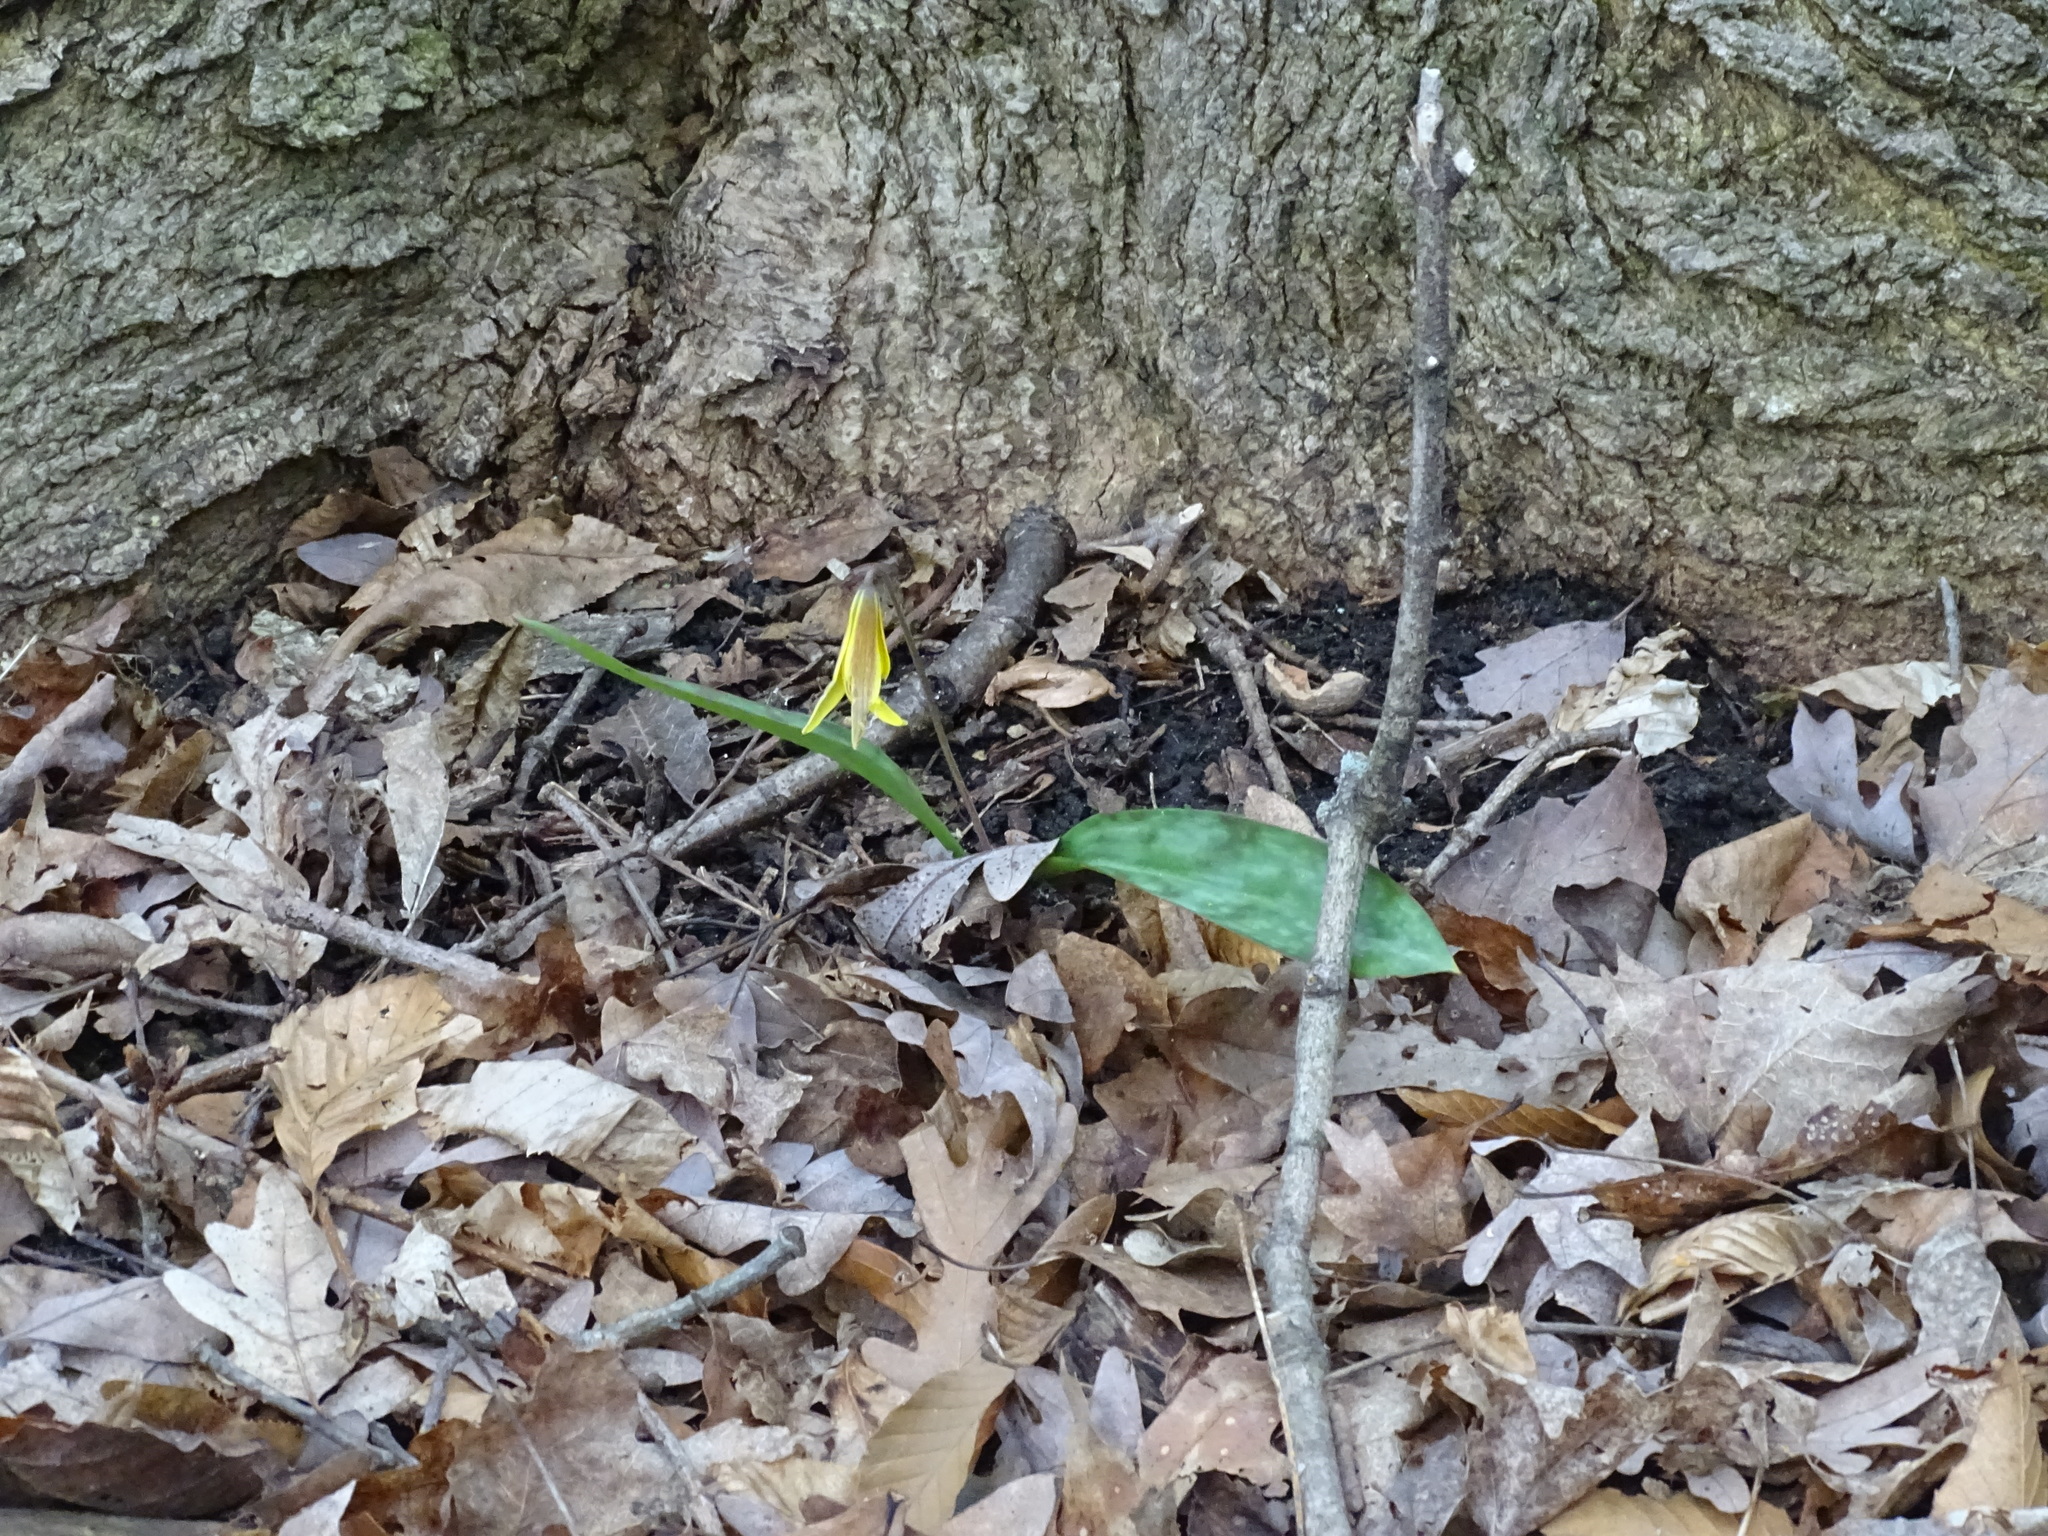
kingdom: Plantae
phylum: Tracheophyta
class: Liliopsida
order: Liliales
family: Liliaceae
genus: Erythronium
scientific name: Erythronium americanum
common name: Yellow adder's-tongue
